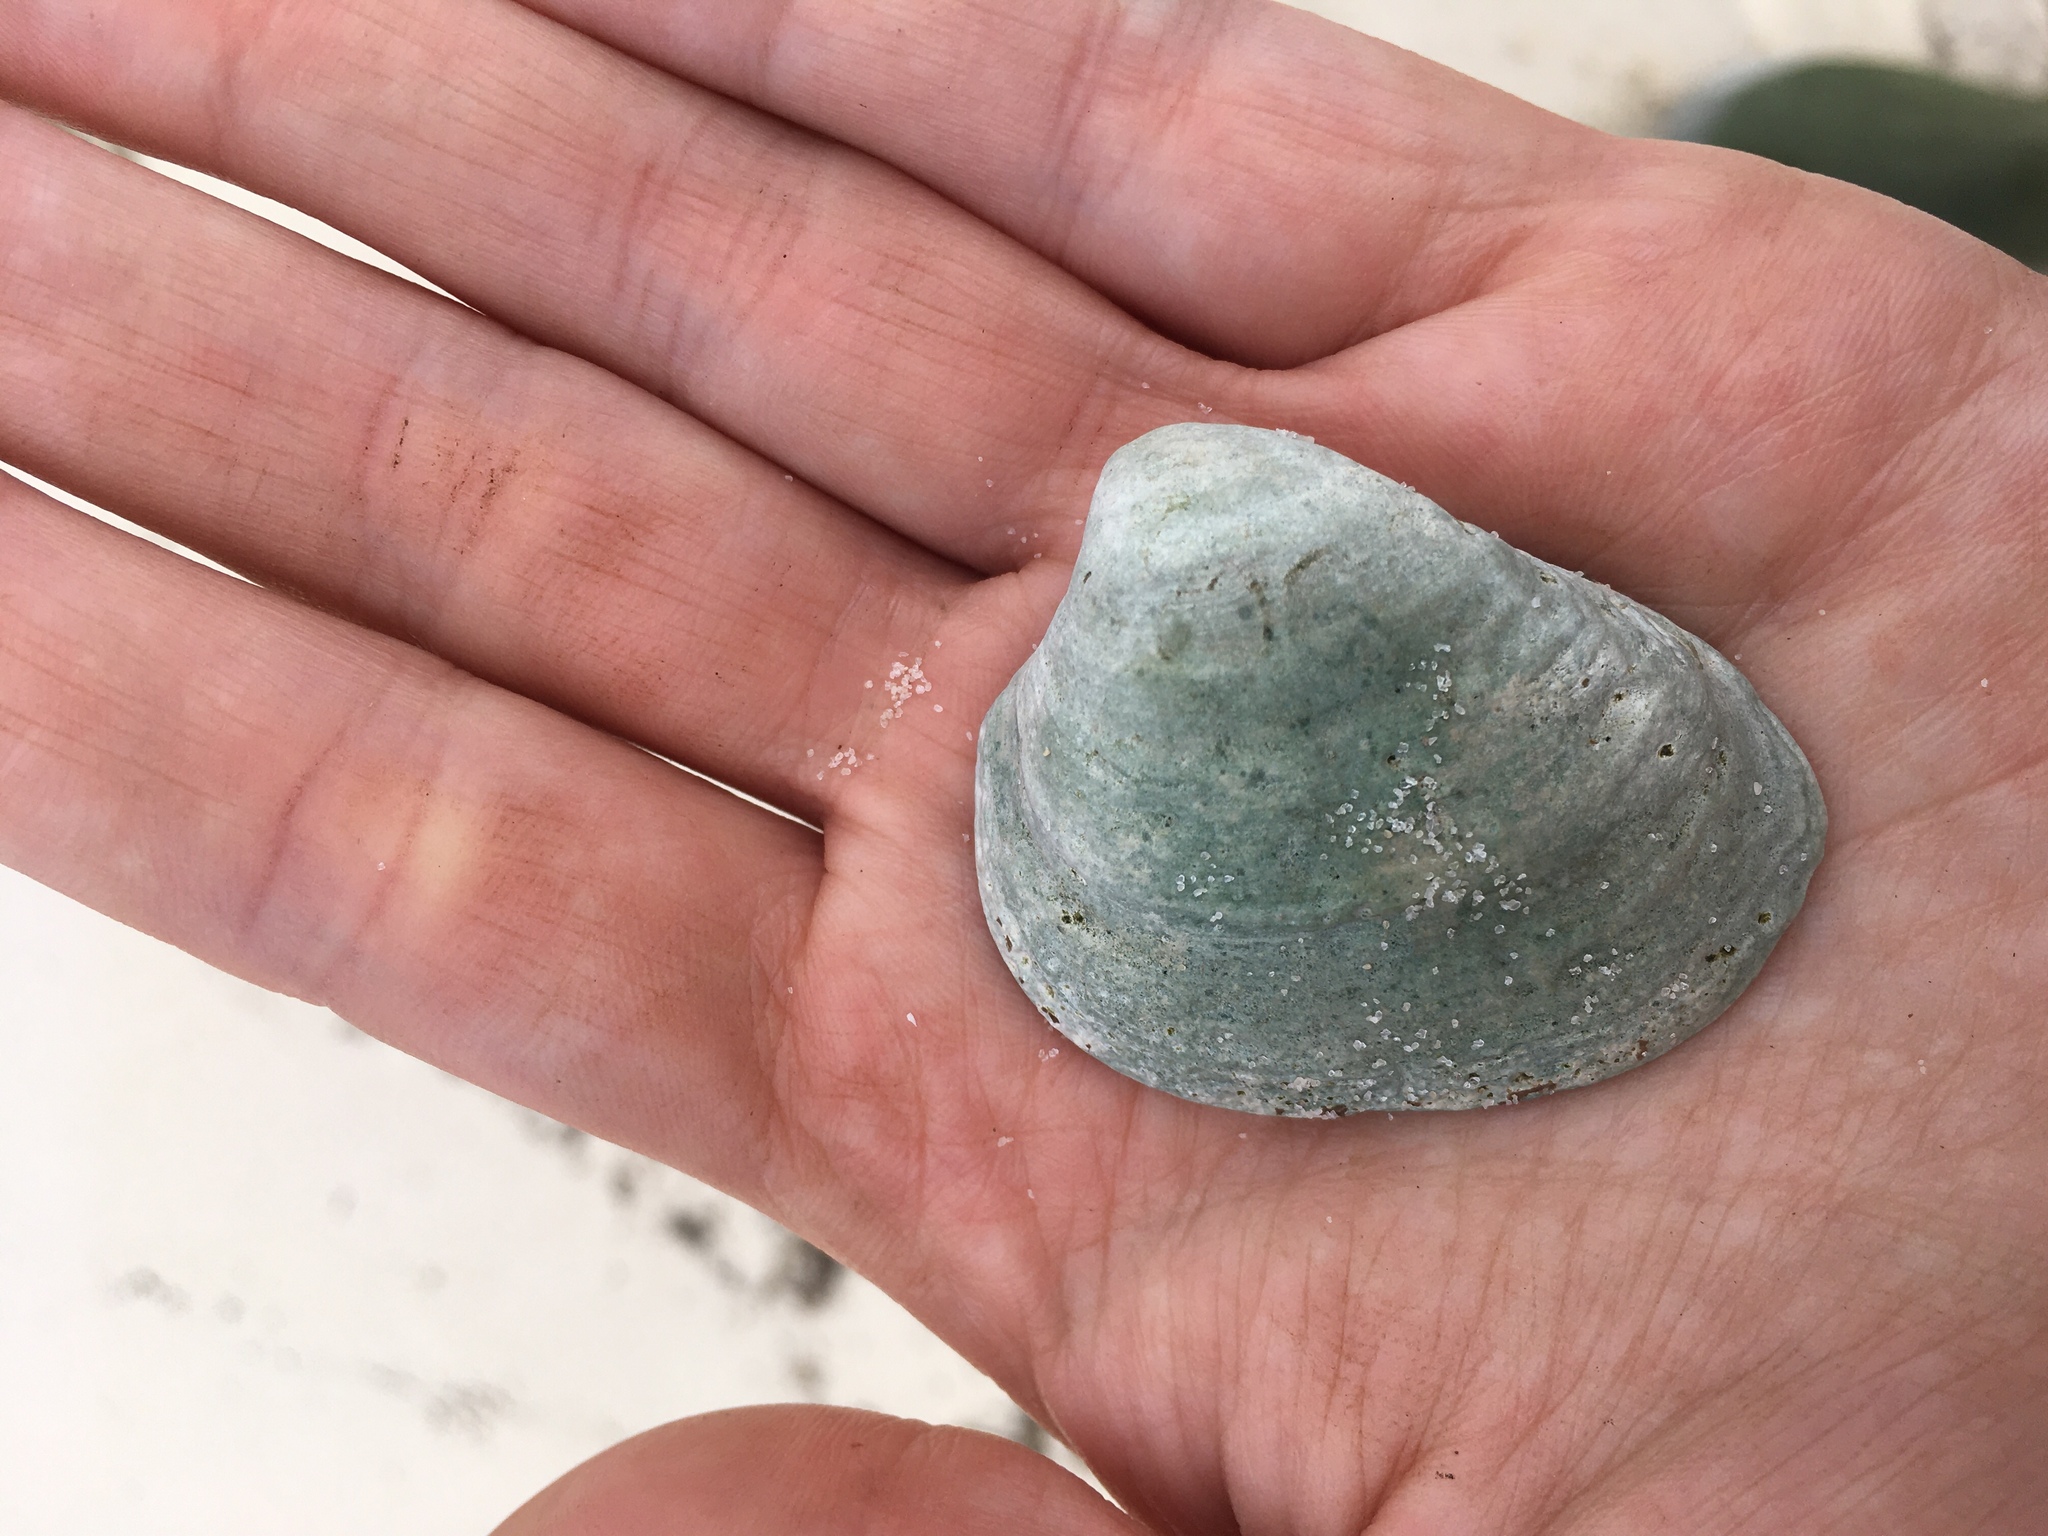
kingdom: Animalia
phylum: Mollusca
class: Bivalvia
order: Venerida
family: Mactridae
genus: Rangia
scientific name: Rangia cuneata
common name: Atlantic rangia
